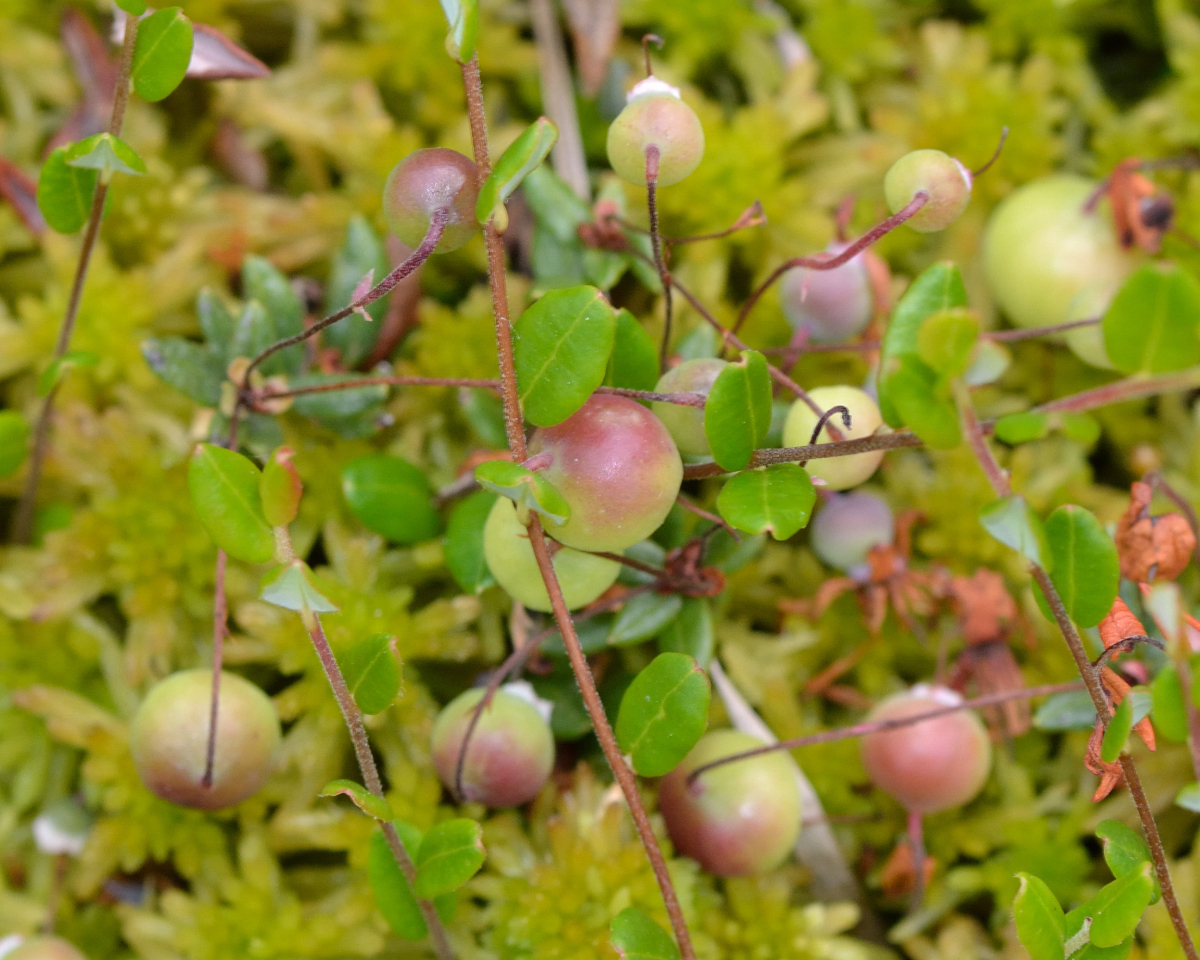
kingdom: Plantae
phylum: Tracheophyta
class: Magnoliopsida
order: Ericales
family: Ericaceae
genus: Vaccinium
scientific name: Vaccinium oxycoccos
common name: Cranberry
